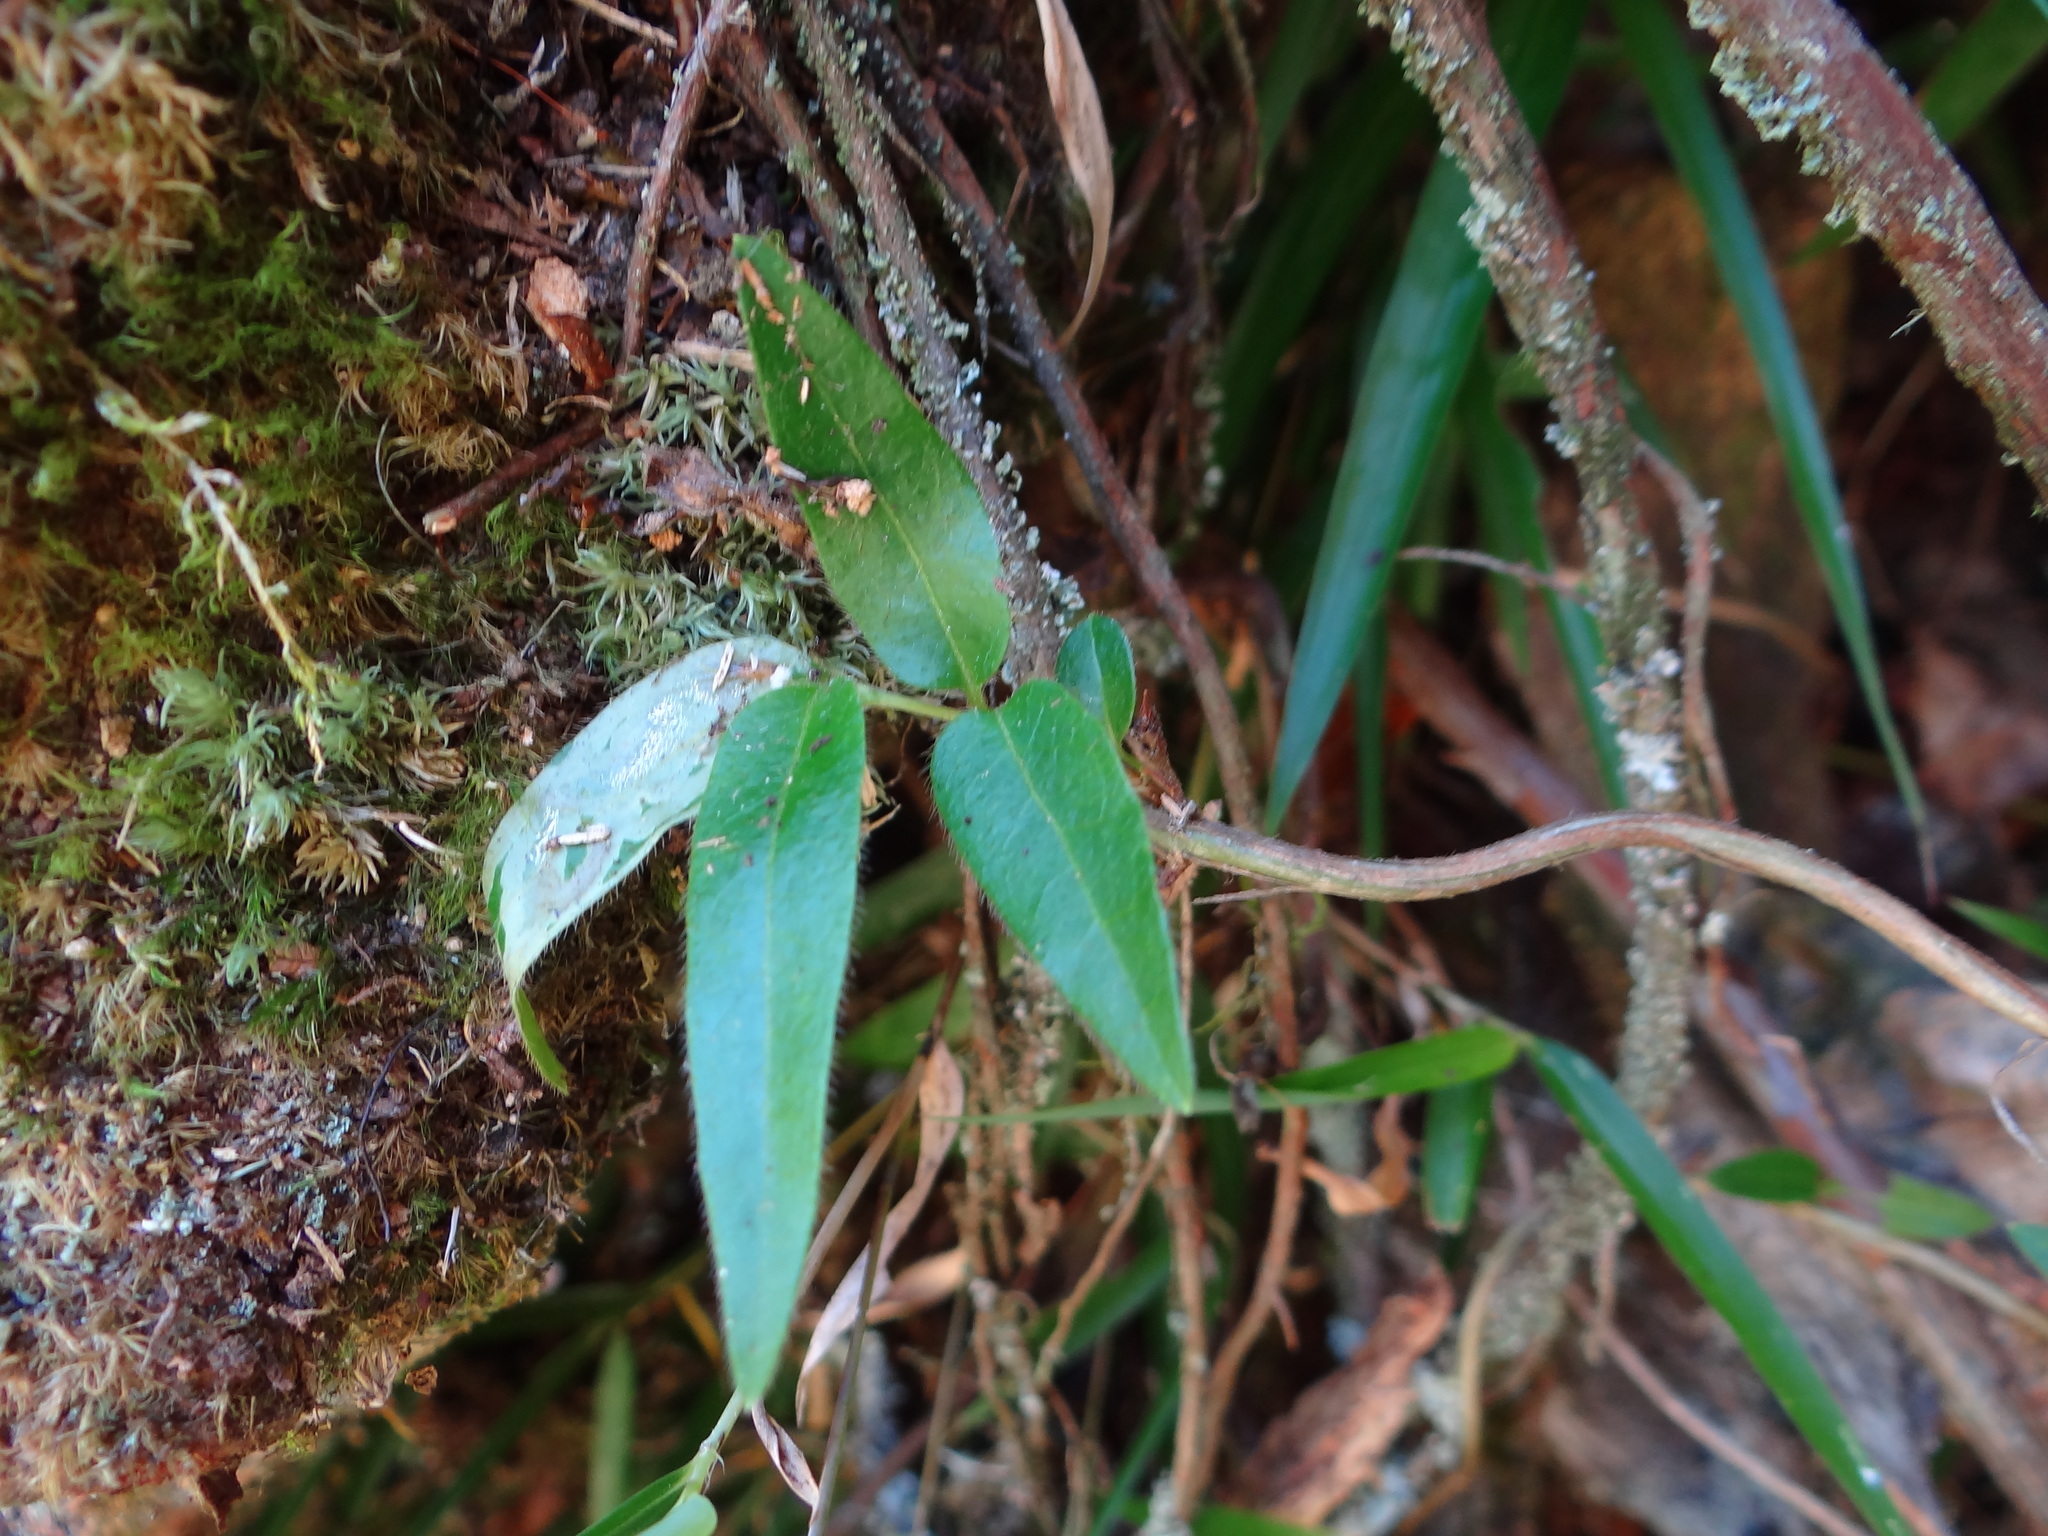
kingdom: Plantae
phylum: Tracheophyta
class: Magnoliopsida
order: Dipsacales
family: Caprifoliaceae
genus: Lonicera
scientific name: Lonicera acuminata
